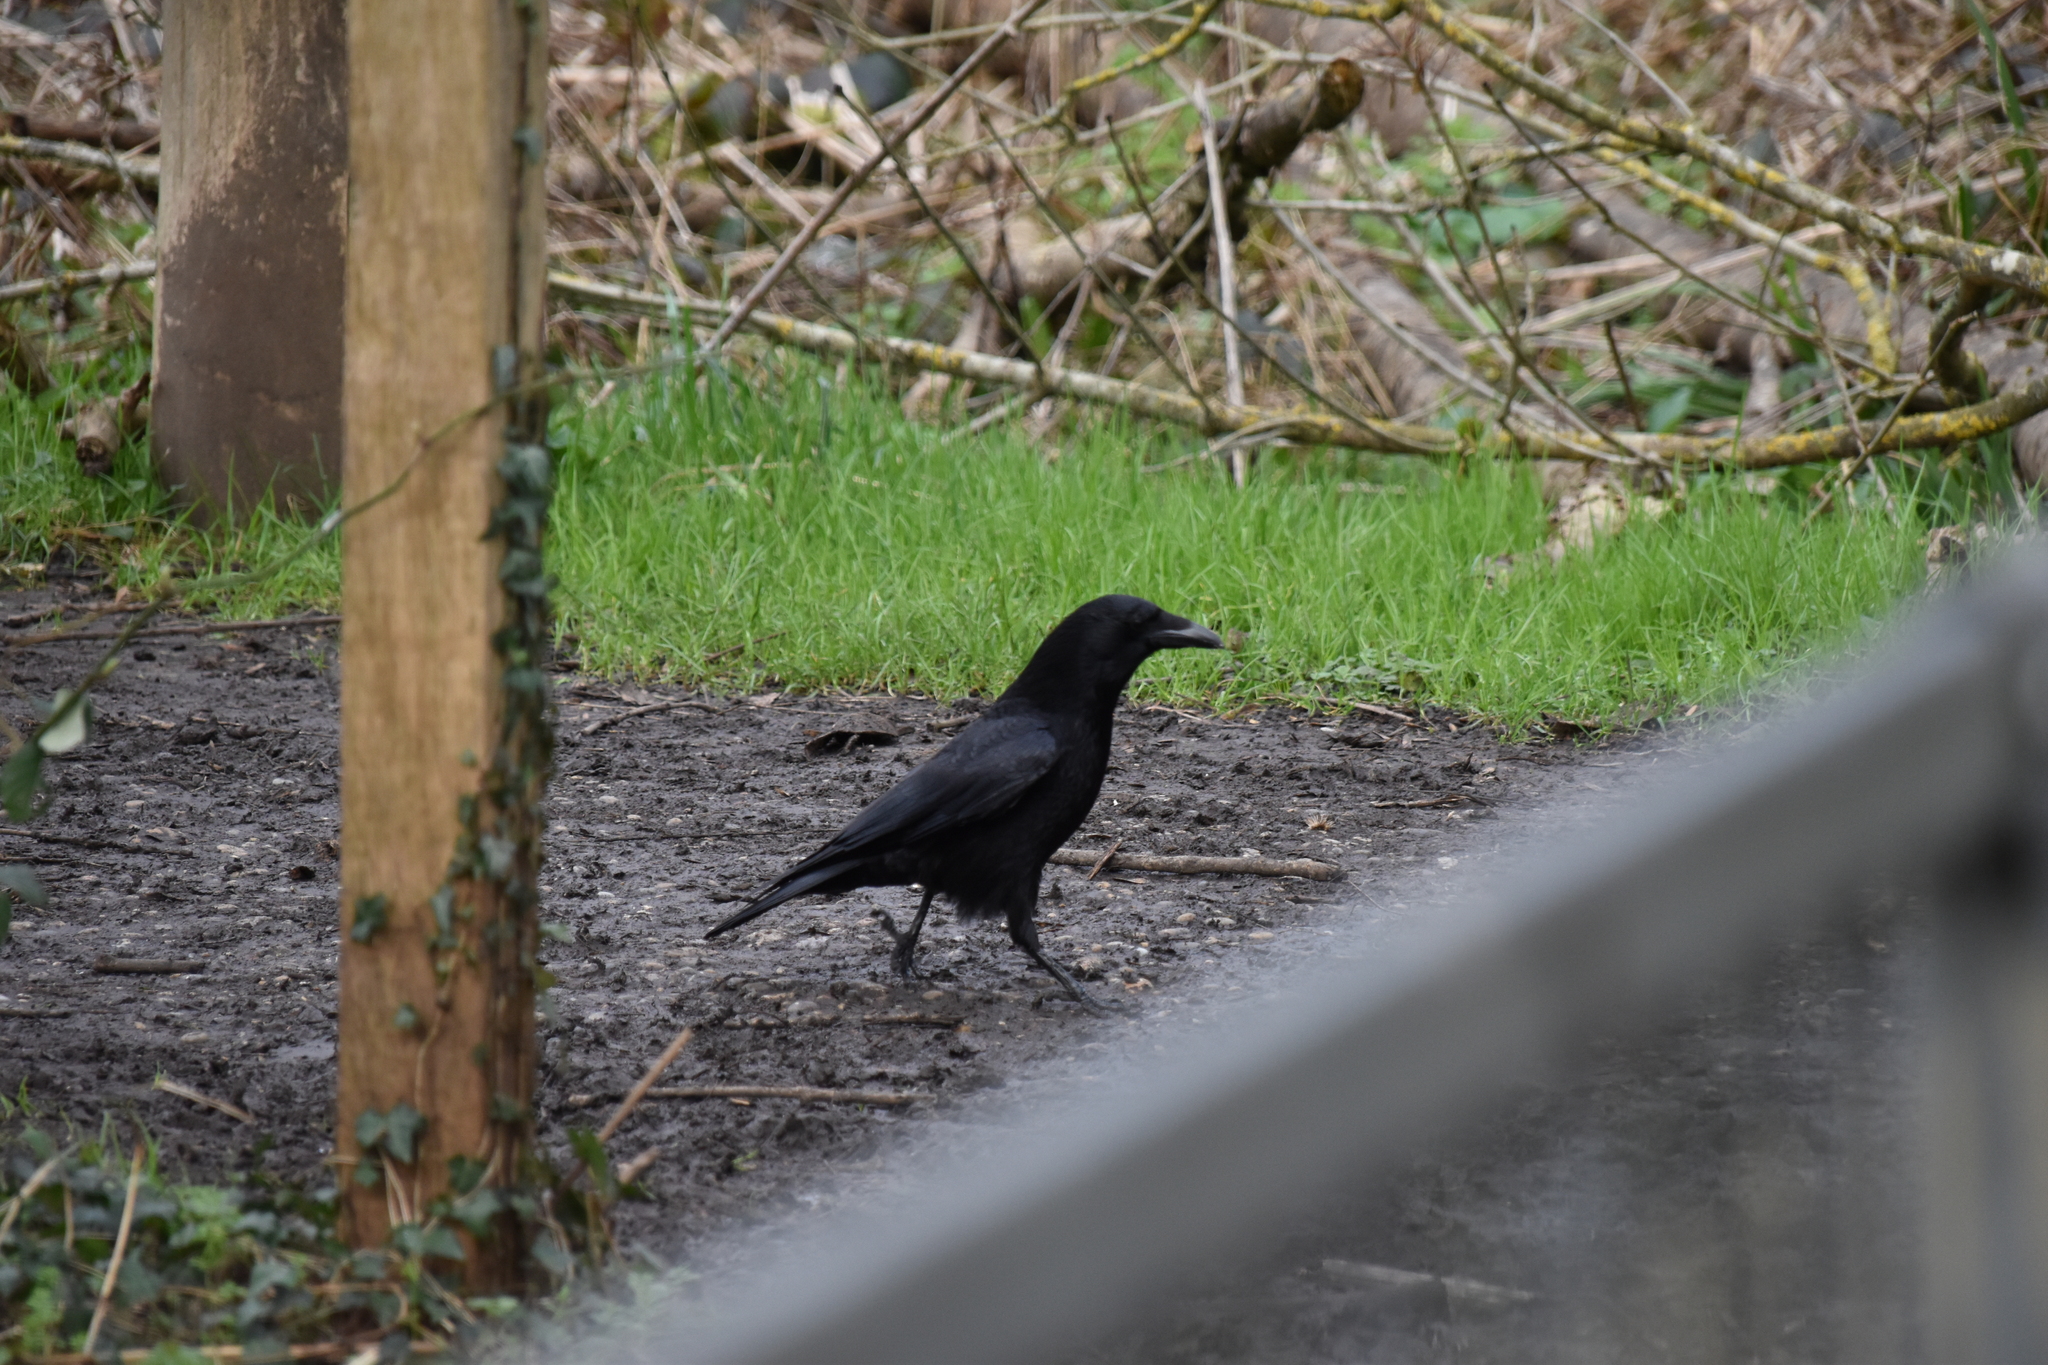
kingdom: Animalia
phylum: Chordata
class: Aves
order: Passeriformes
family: Corvidae
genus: Corvus
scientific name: Corvus corone
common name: Carrion crow
